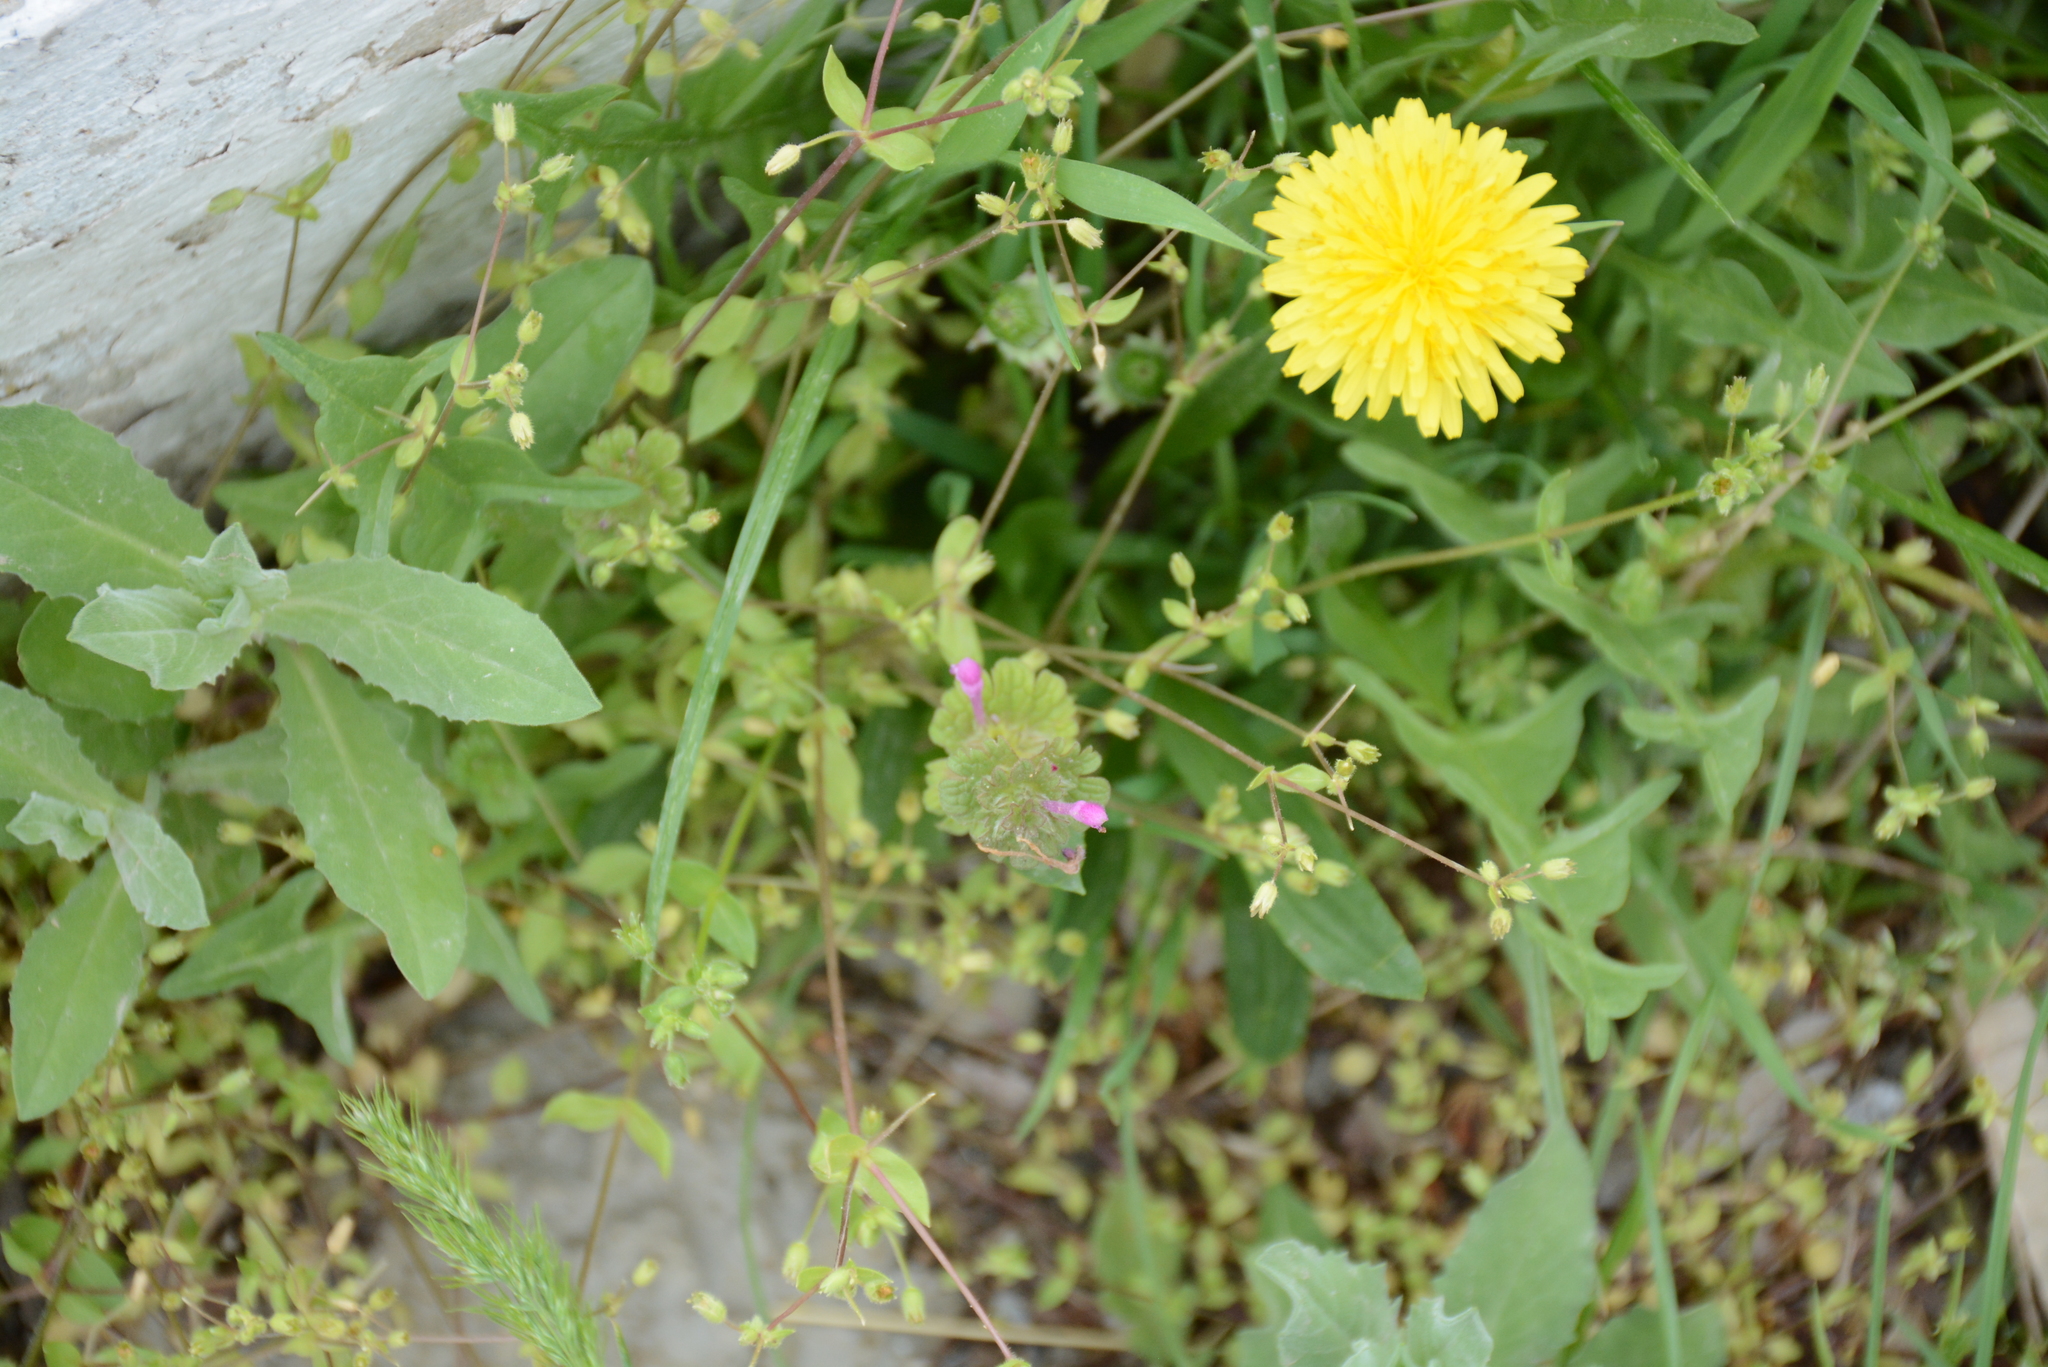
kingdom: Plantae
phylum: Tracheophyta
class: Magnoliopsida
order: Lamiales
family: Lamiaceae
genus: Lamium
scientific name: Lamium amplexicaule
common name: Henbit dead-nettle
